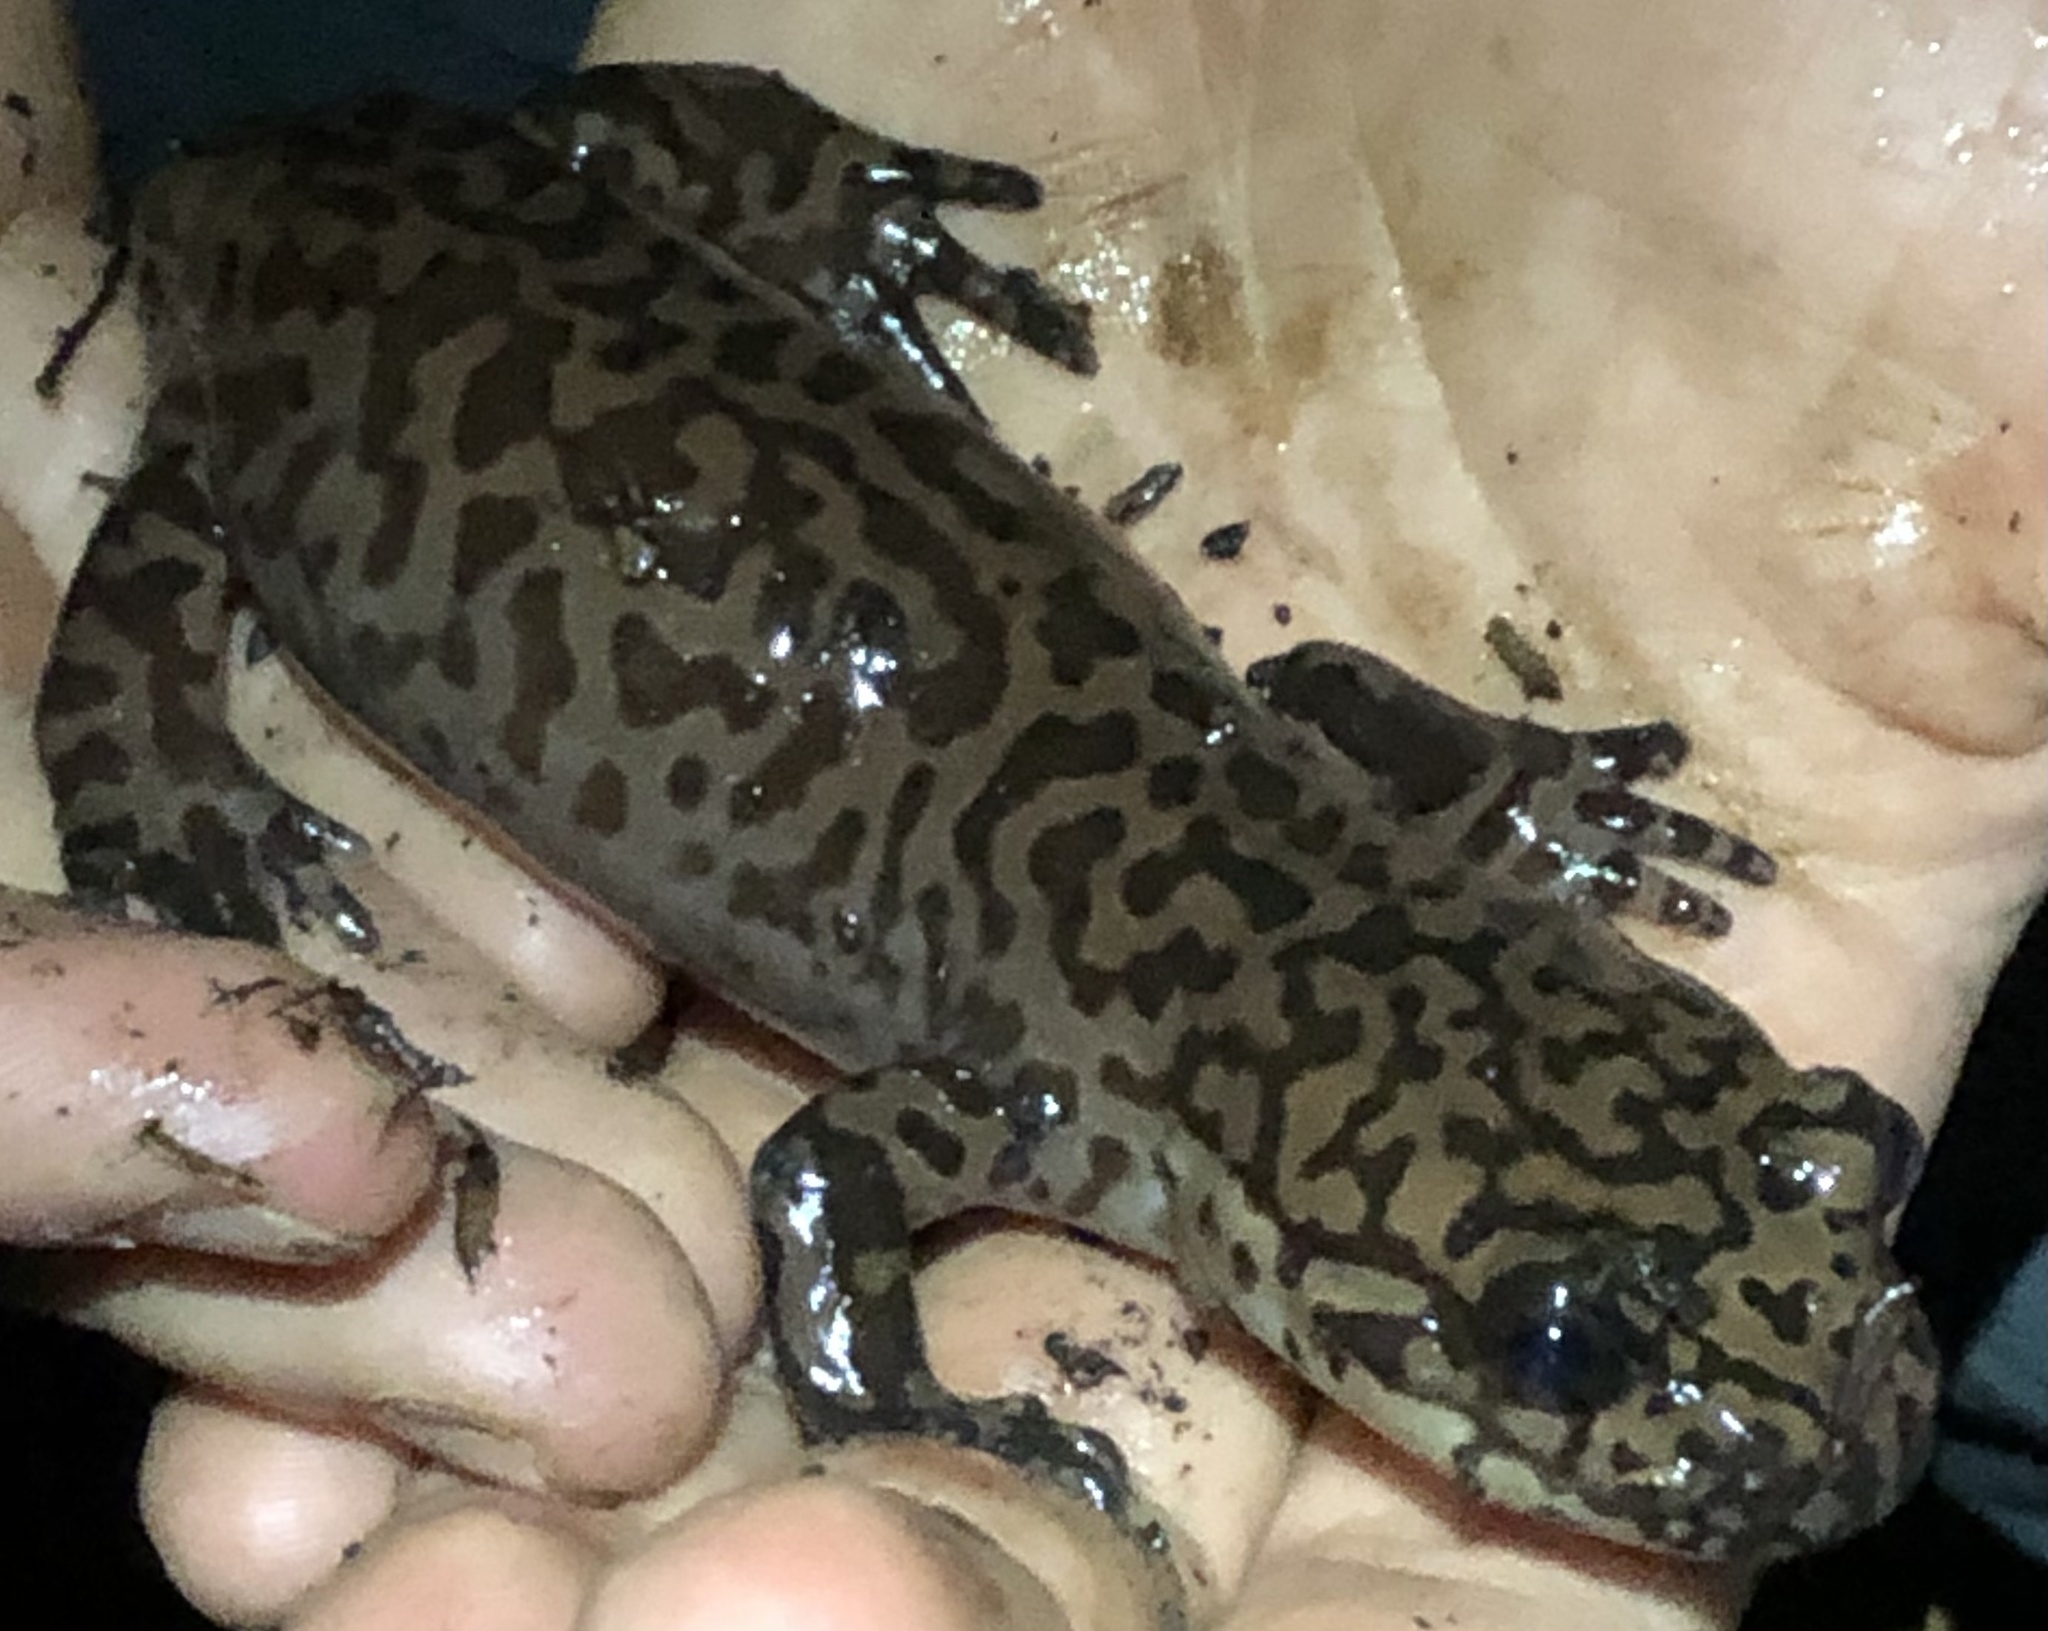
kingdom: Animalia
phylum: Chordata
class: Amphibia
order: Caudata
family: Ambystomatidae
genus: Dicamptodon
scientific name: Dicamptodon ensatus
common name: California giant salamander
